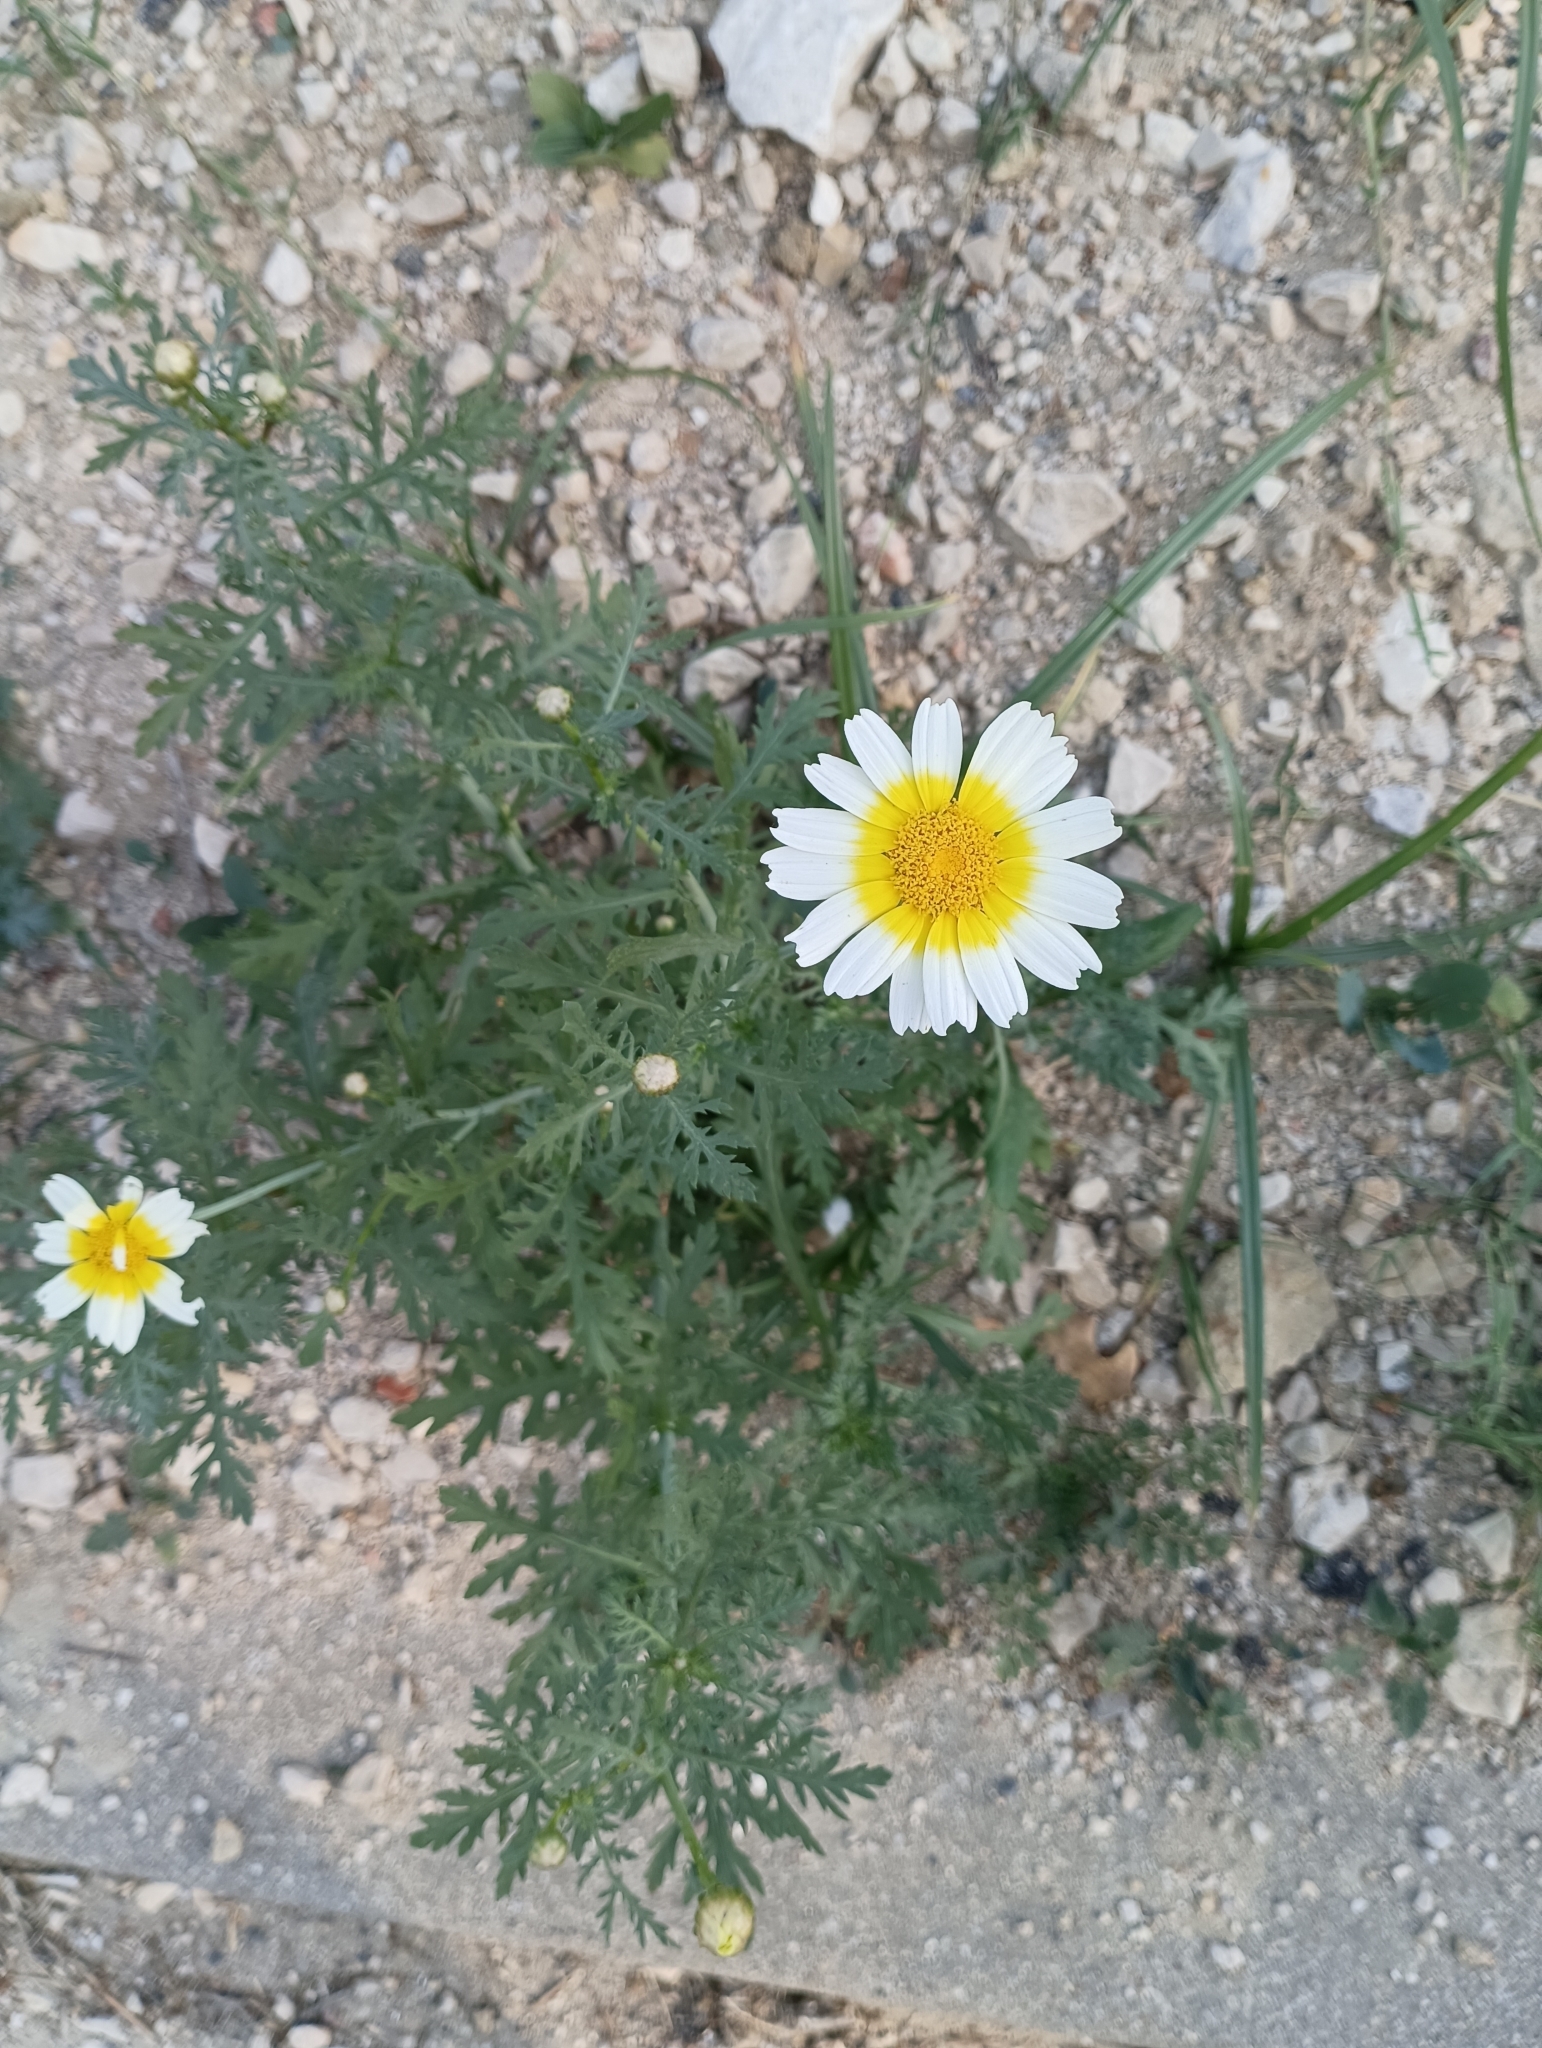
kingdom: Plantae
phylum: Tracheophyta
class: Magnoliopsida
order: Asterales
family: Asteraceae
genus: Glebionis
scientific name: Glebionis coronaria
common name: Crowndaisy
